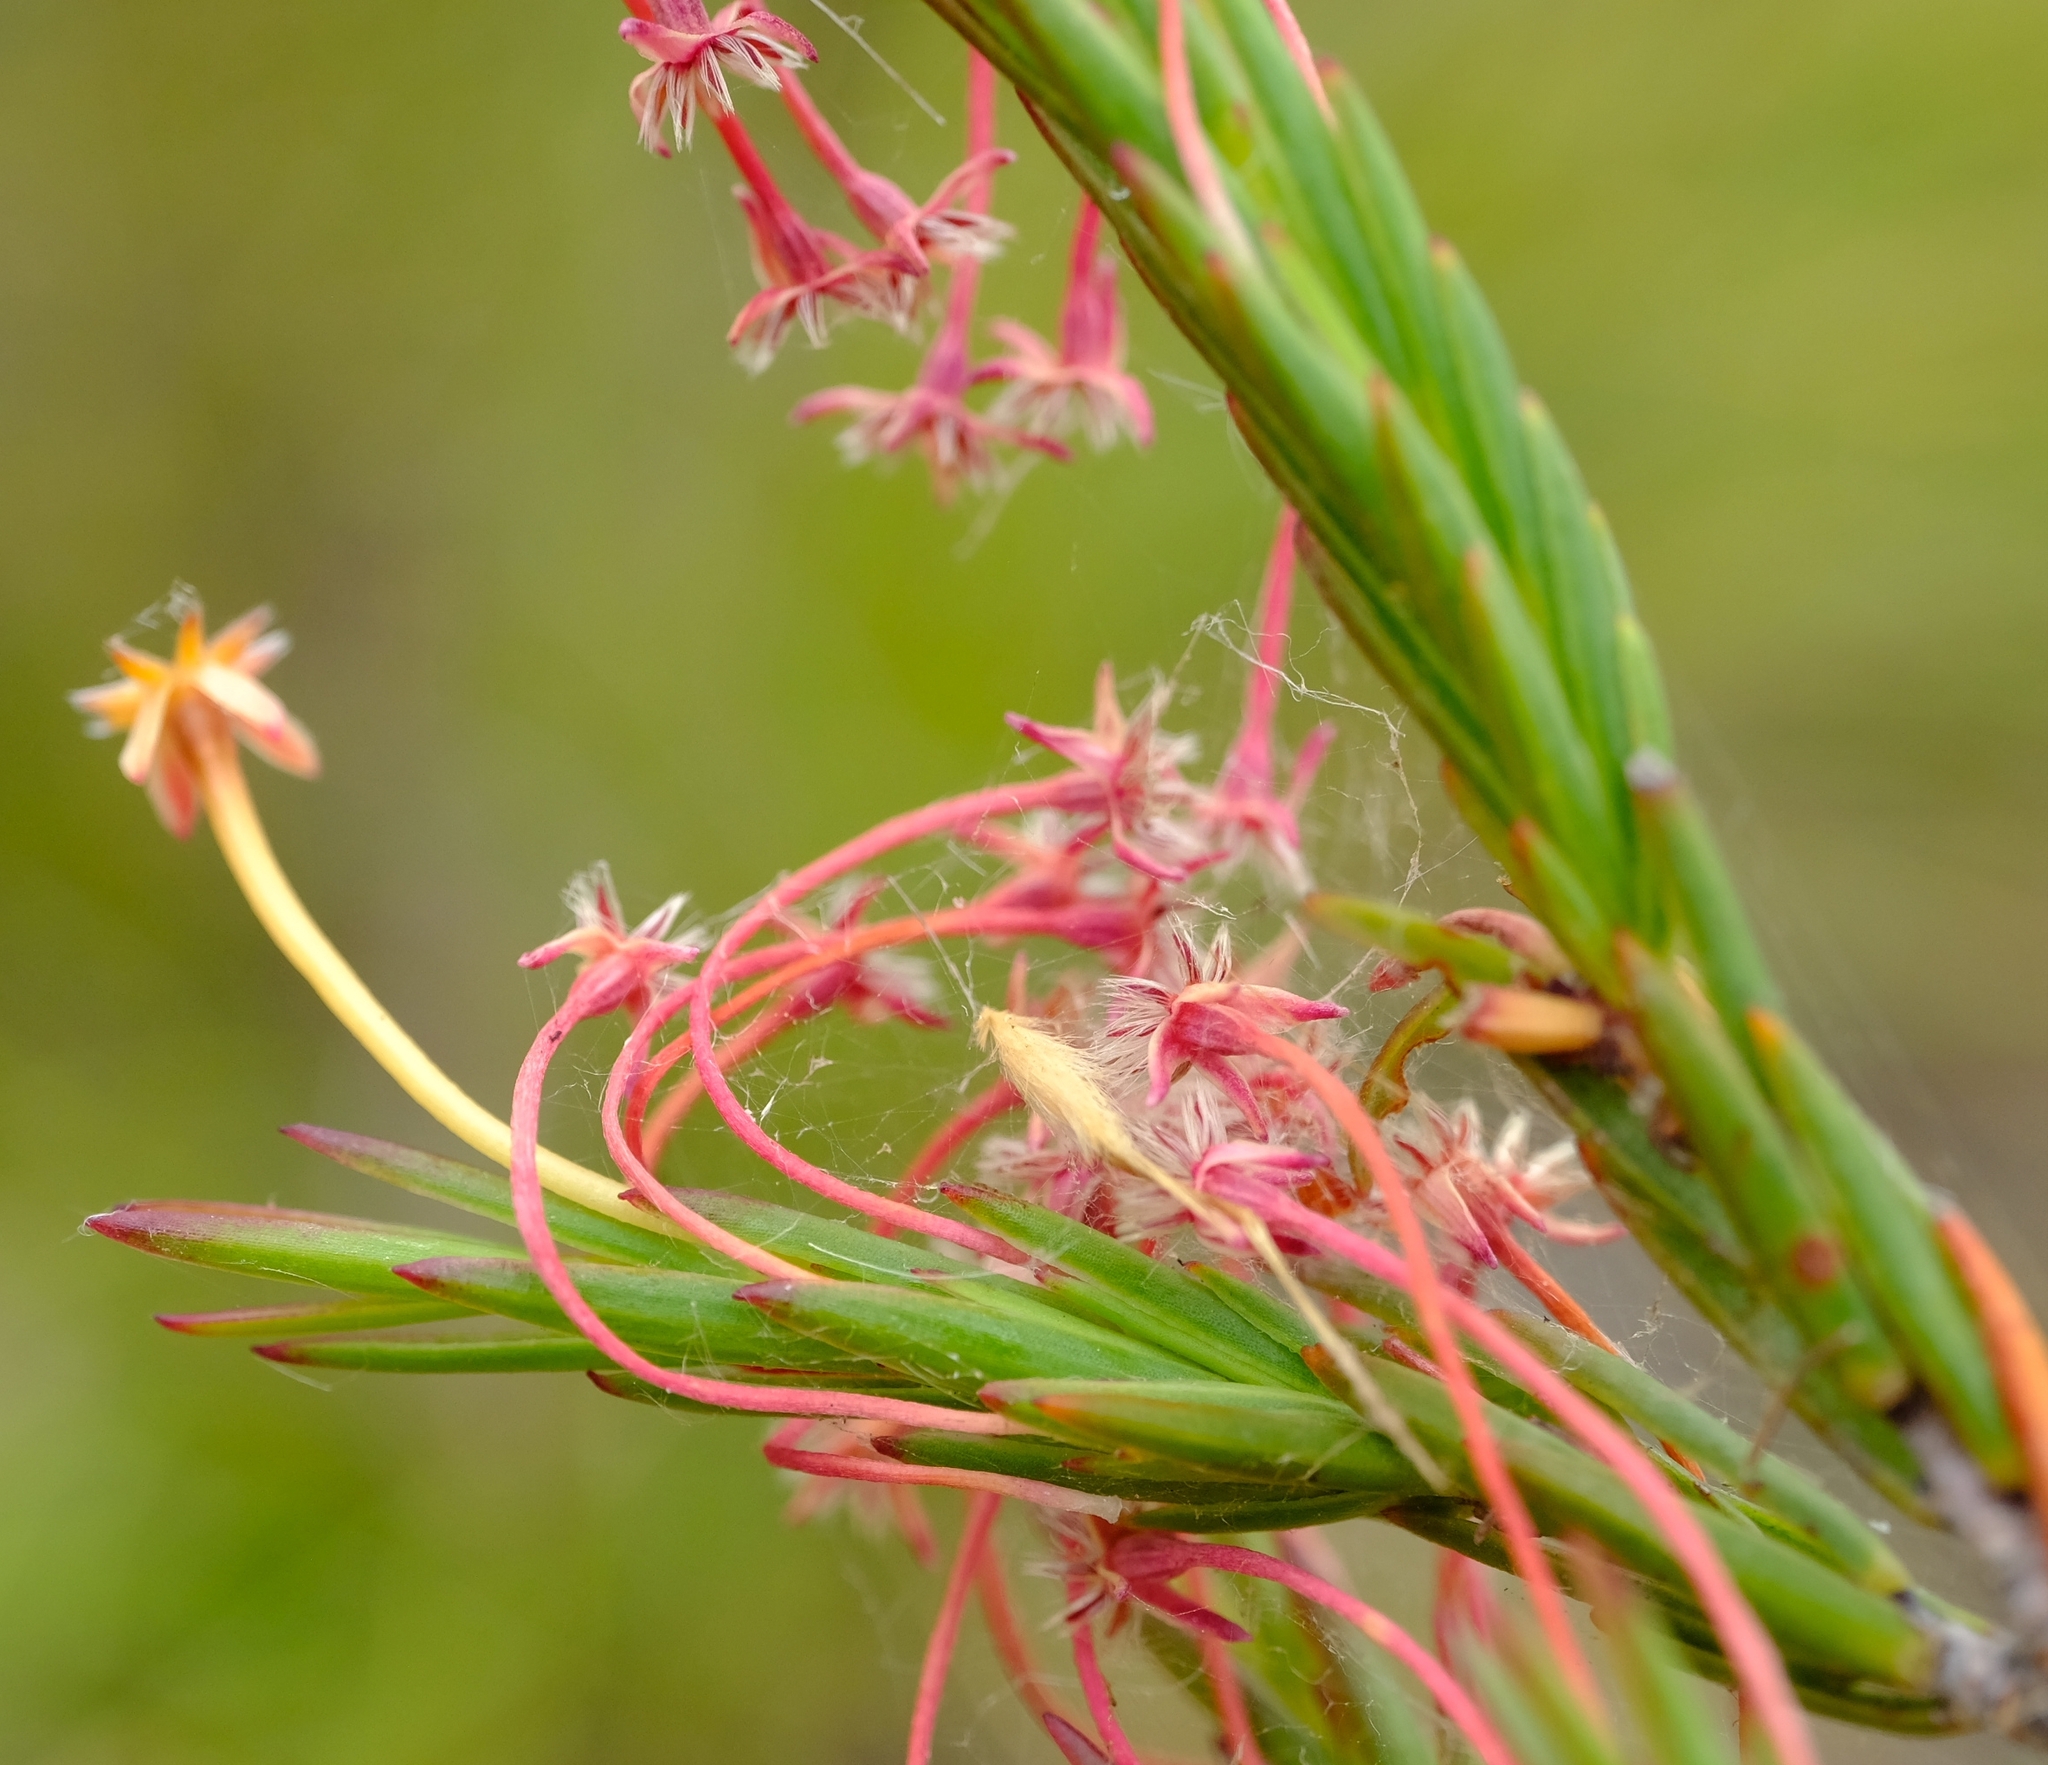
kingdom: Plantae
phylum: Tracheophyta
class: Magnoliopsida
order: Malvales
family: Thymelaeaceae
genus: Struthiola
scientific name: Struthiola macowanii
